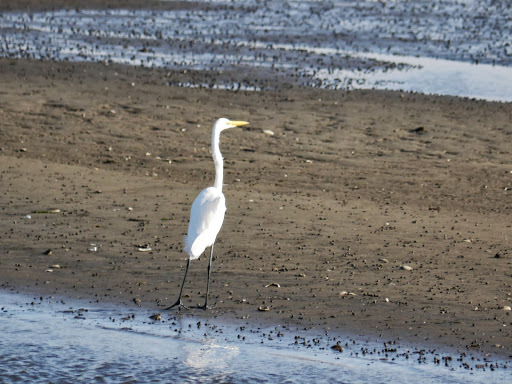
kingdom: Animalia
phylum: Chordata
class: Aves
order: Pelecaniformes
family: Ardeidae
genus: Ardea
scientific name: Ardea alba
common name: Great egret
